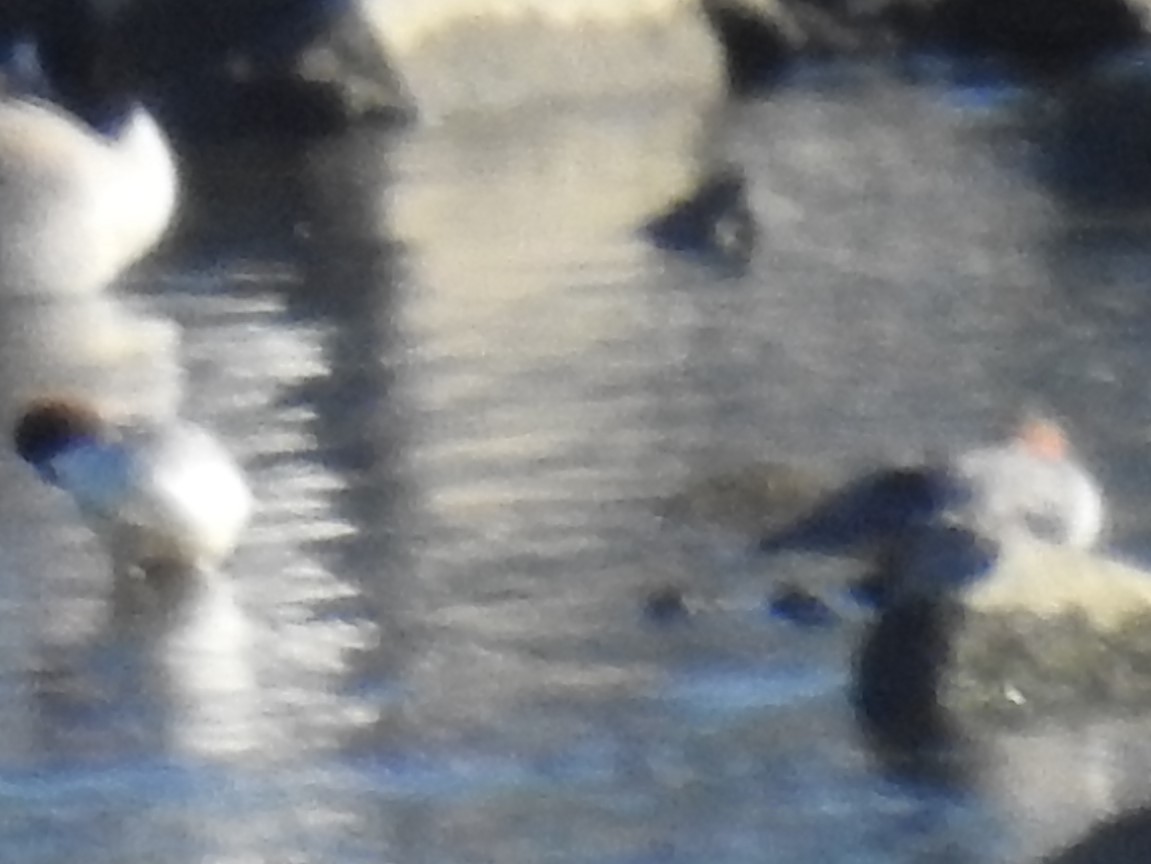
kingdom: Animalia
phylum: Chordata
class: Aves
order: Anseriformes
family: Anatidae
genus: Mergus
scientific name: Mergus merganser
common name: Common merganser
